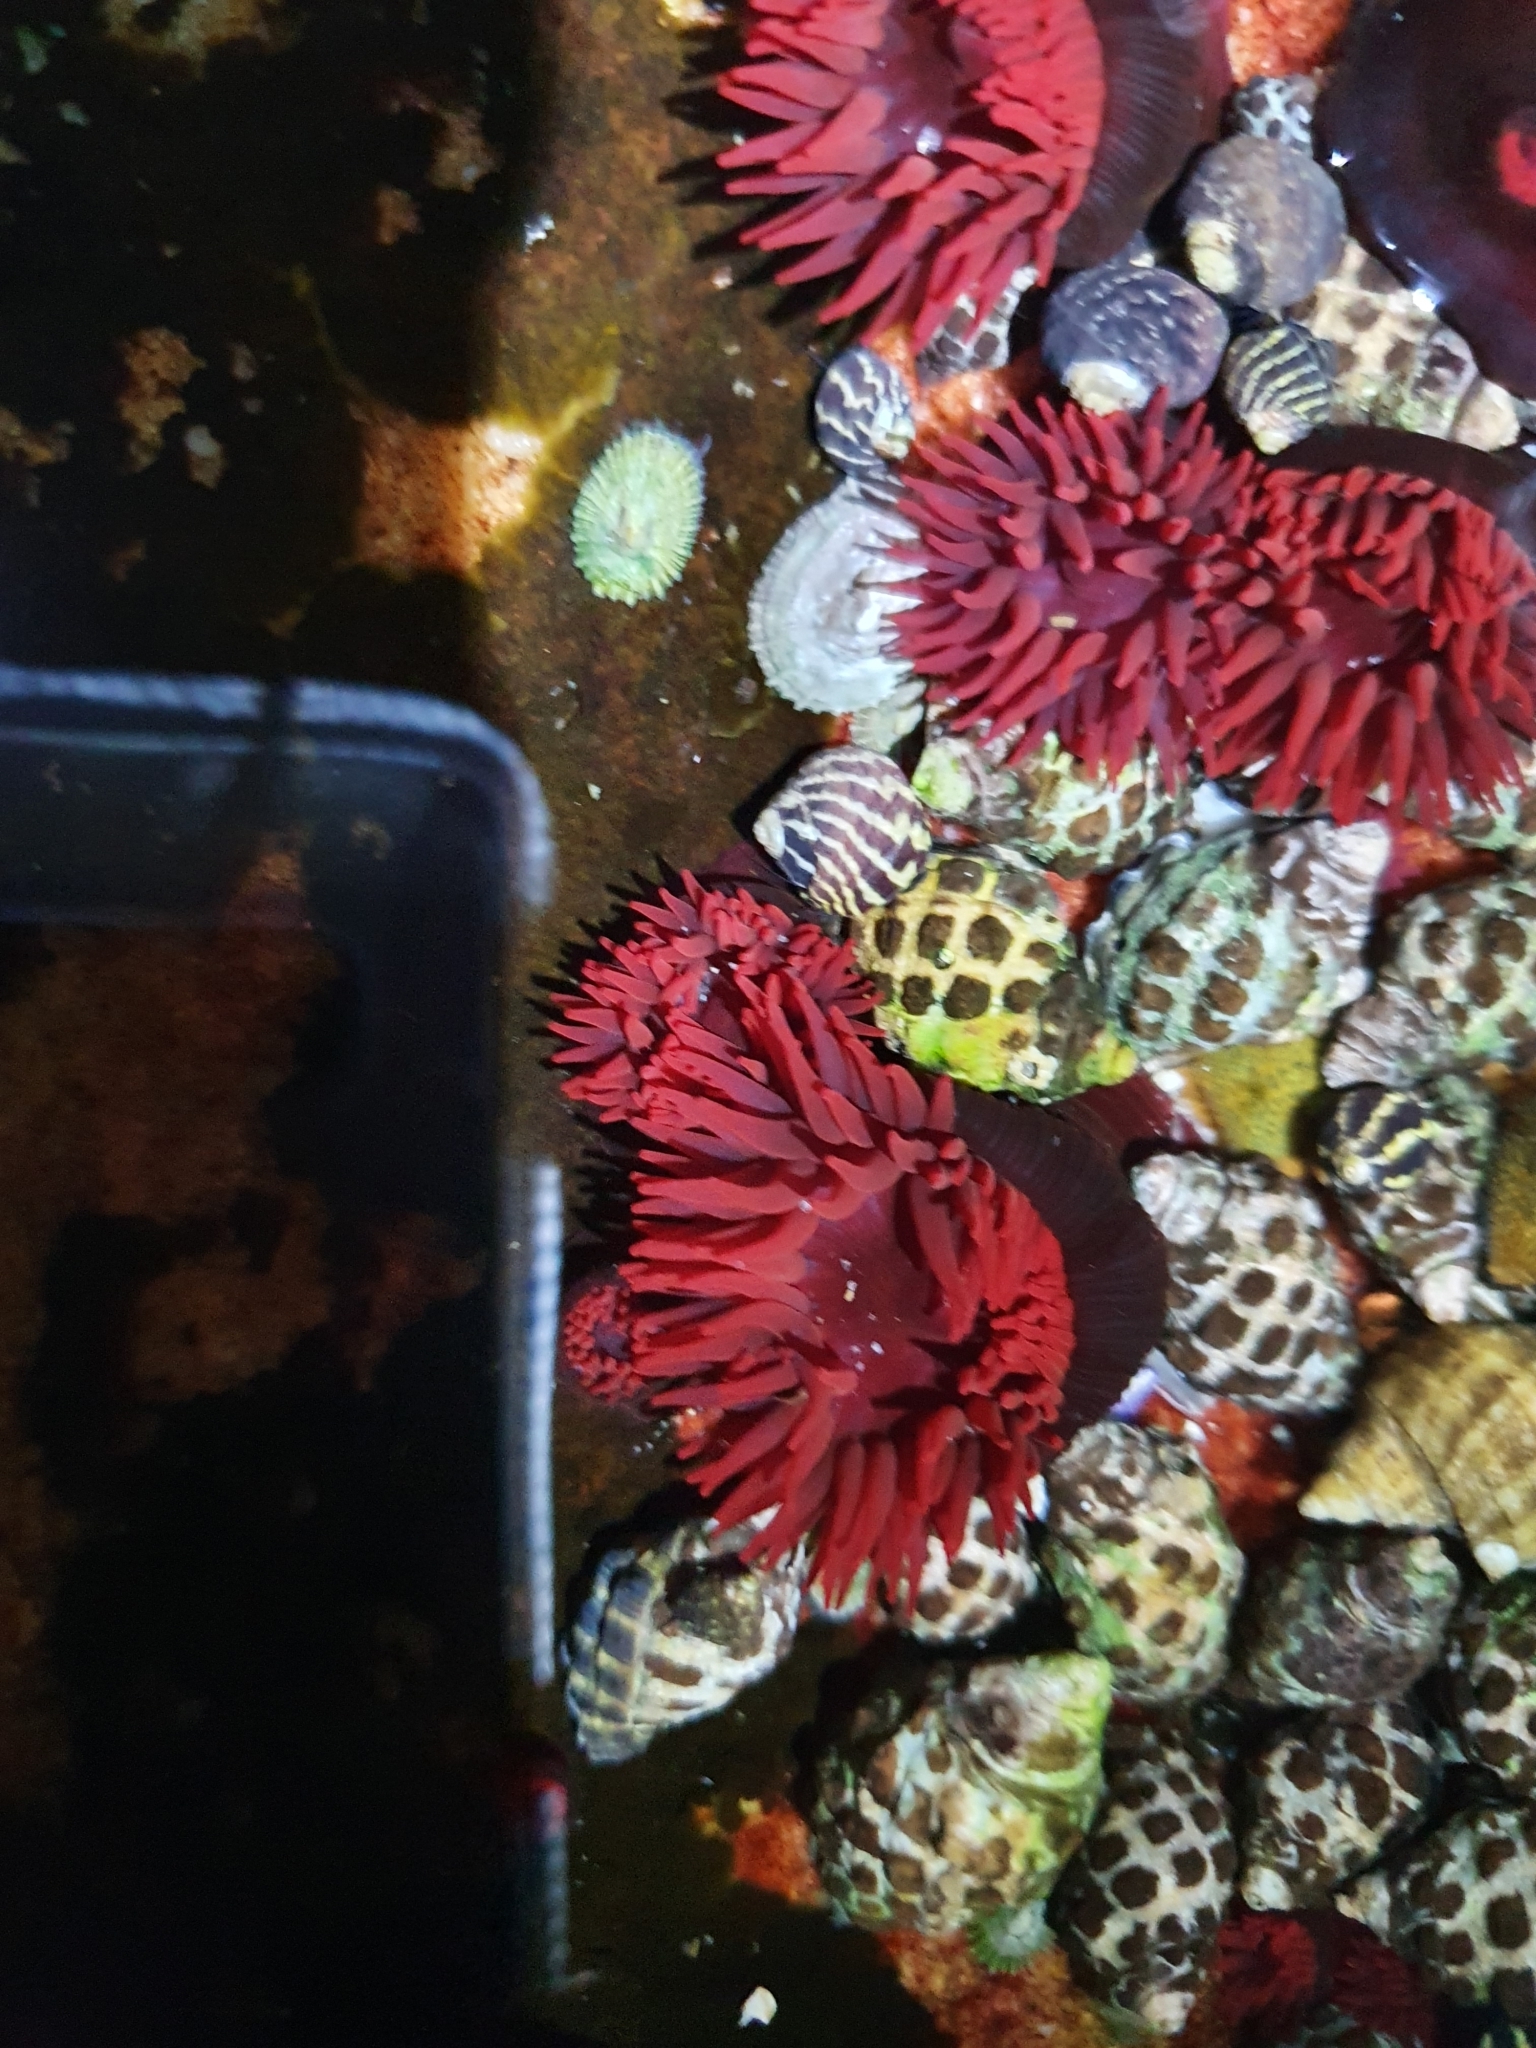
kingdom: Animalia
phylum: Cnidaria
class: Anthozoa
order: Actiniaria
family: Actiniidae
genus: Actinia
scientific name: Actinia tenebrosa
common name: Waratah anemone
